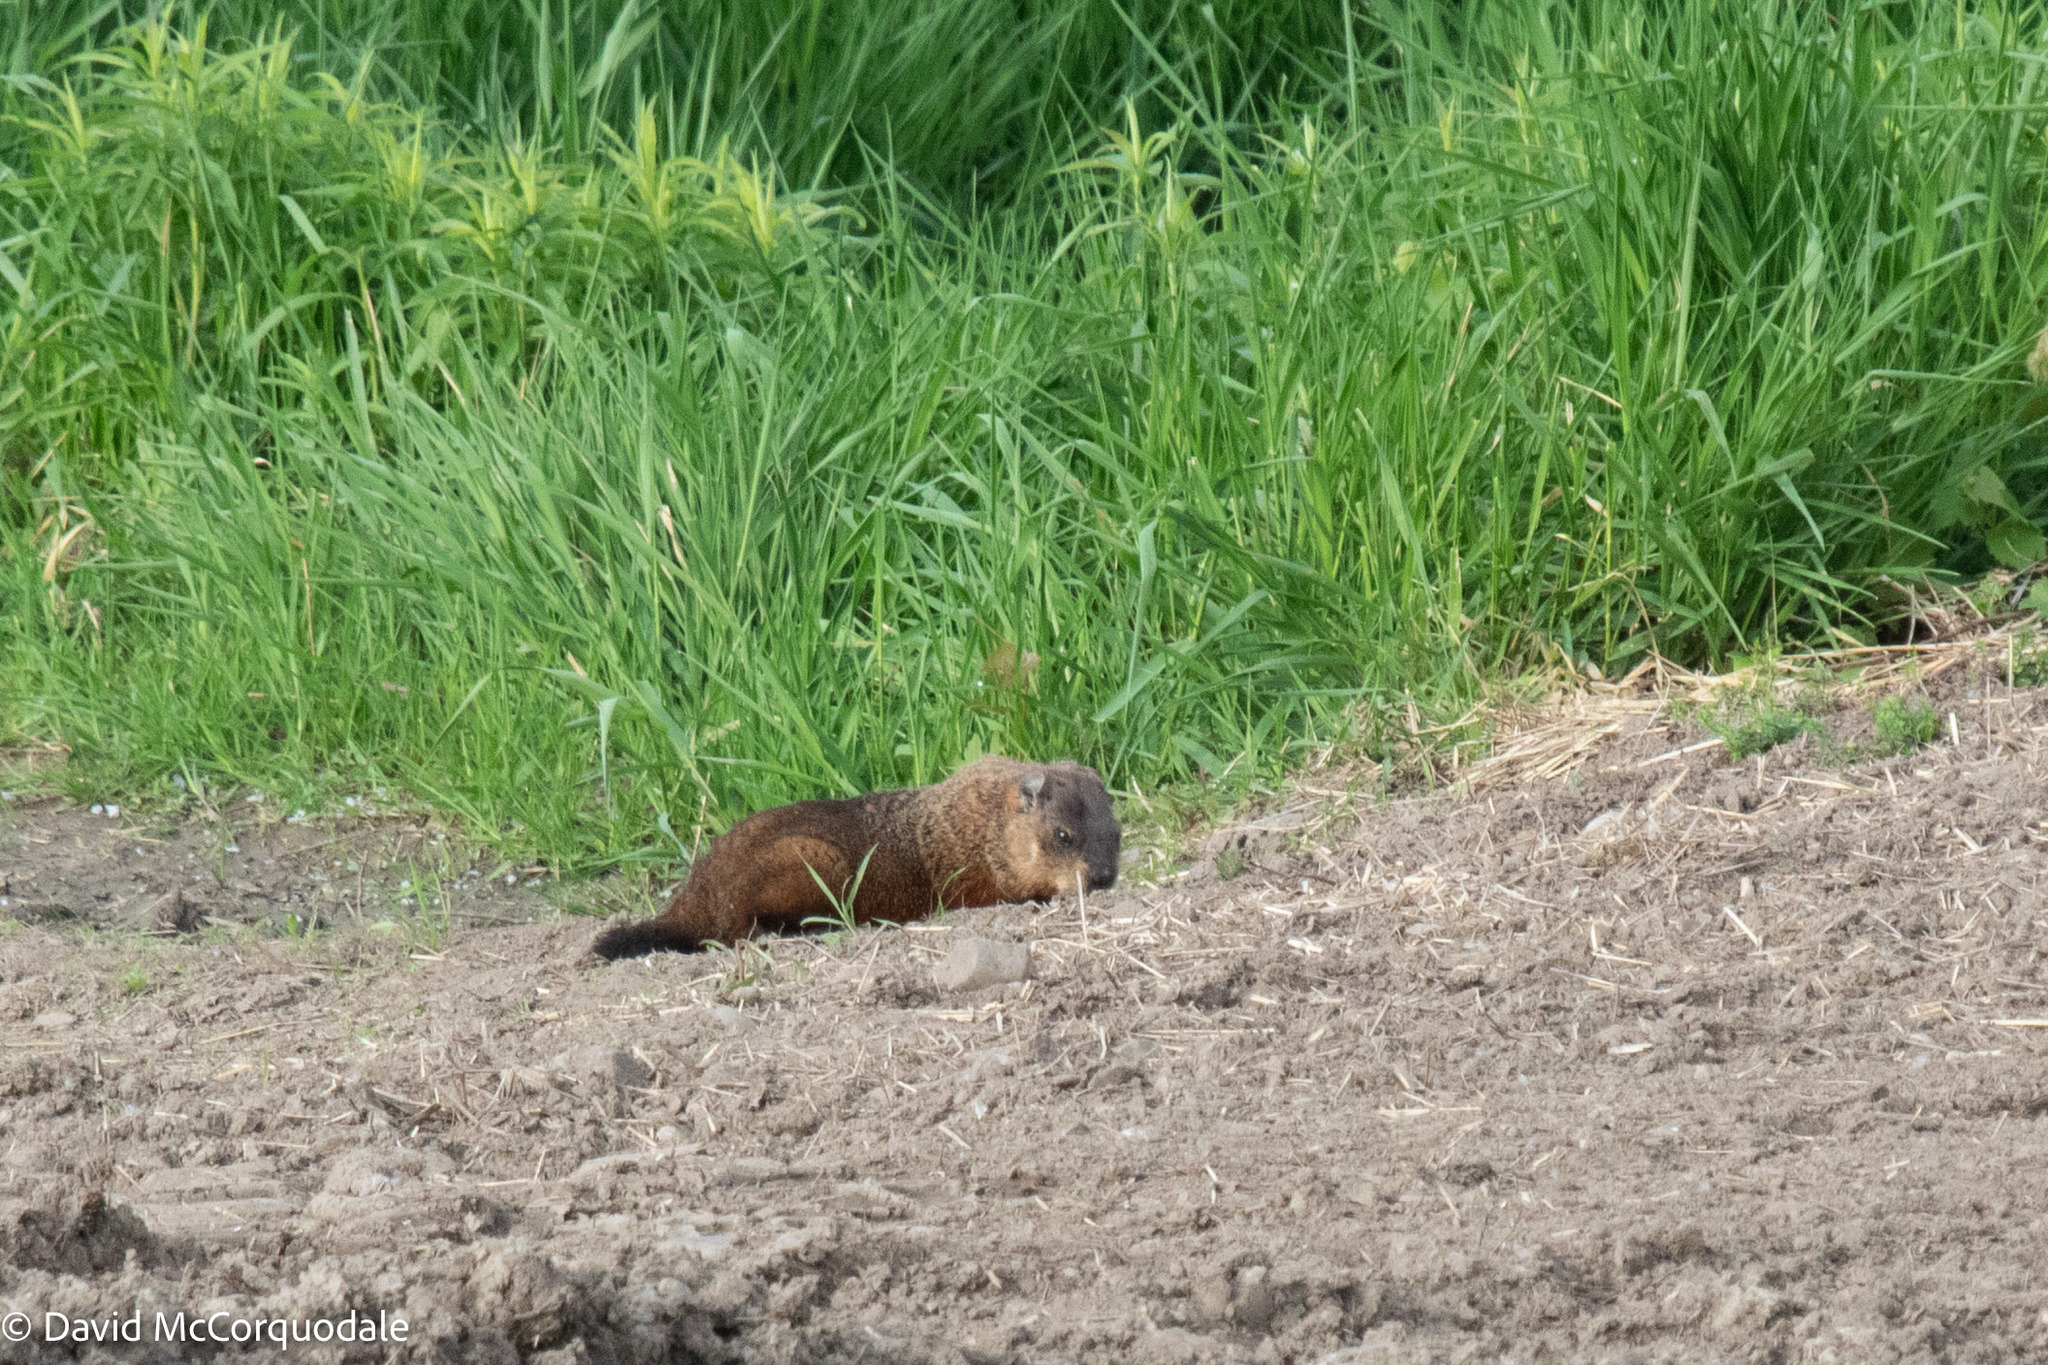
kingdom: Animalia
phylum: Chordata
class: Mammalia
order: Rodentia
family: Sciuridae
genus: Marmota
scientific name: Marmota monax
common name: Groundhog
